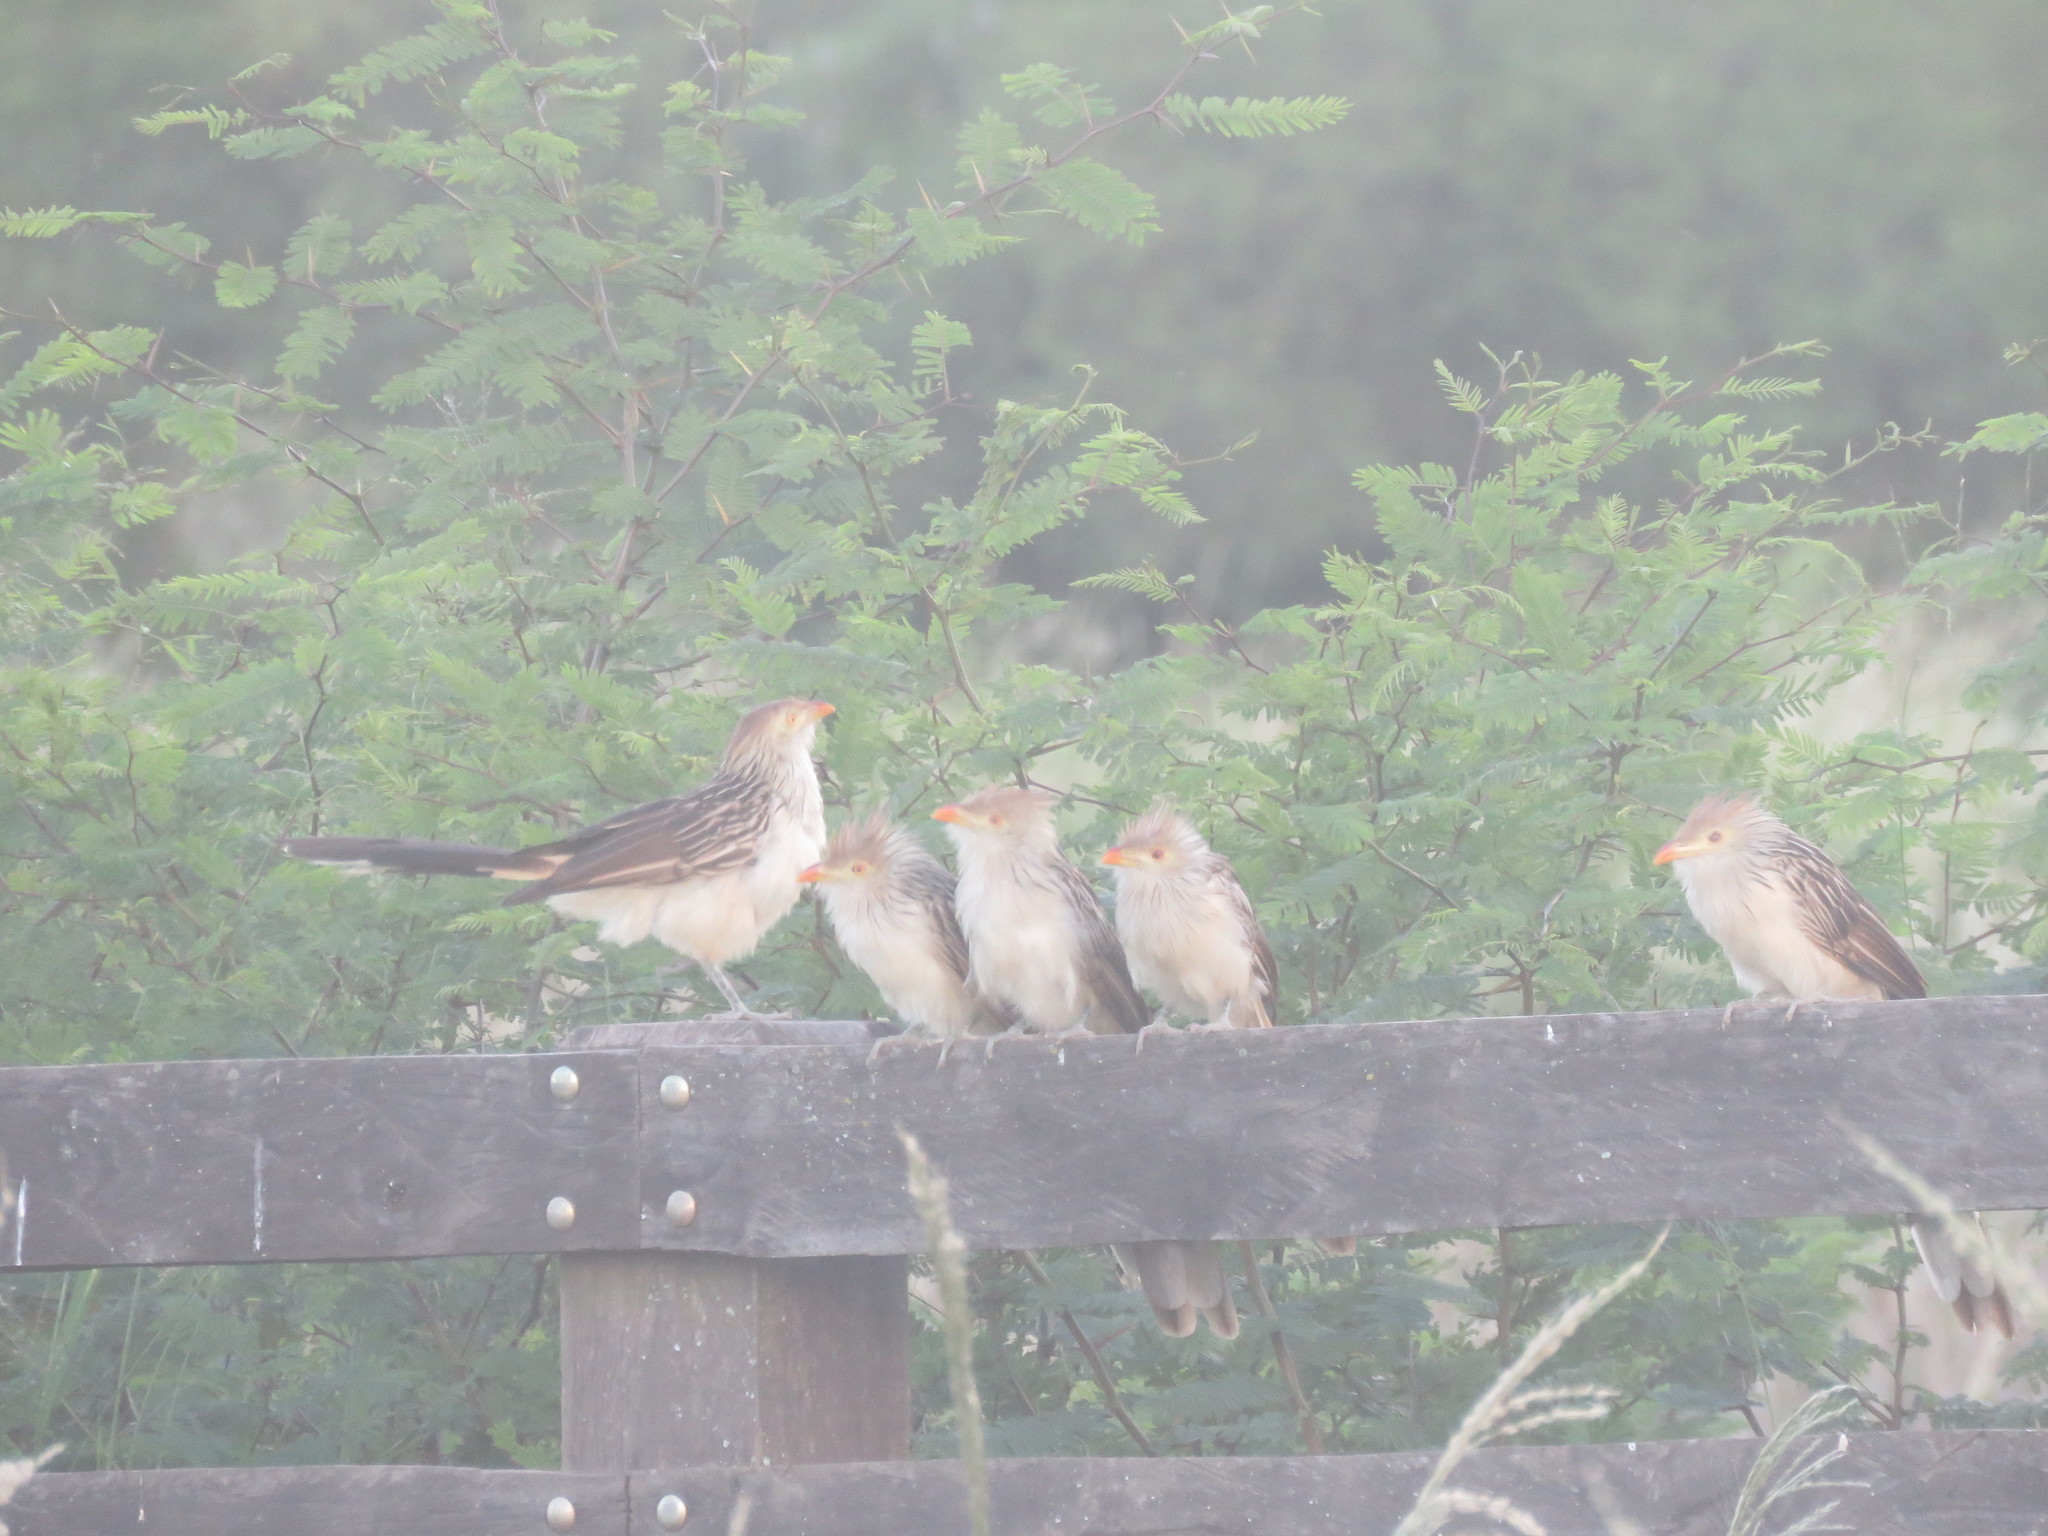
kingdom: Animalia
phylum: Chordata
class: Aves
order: Cuculiformes
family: Cuculidae
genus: Guira
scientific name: Guira guira
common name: Guira cuckoo
